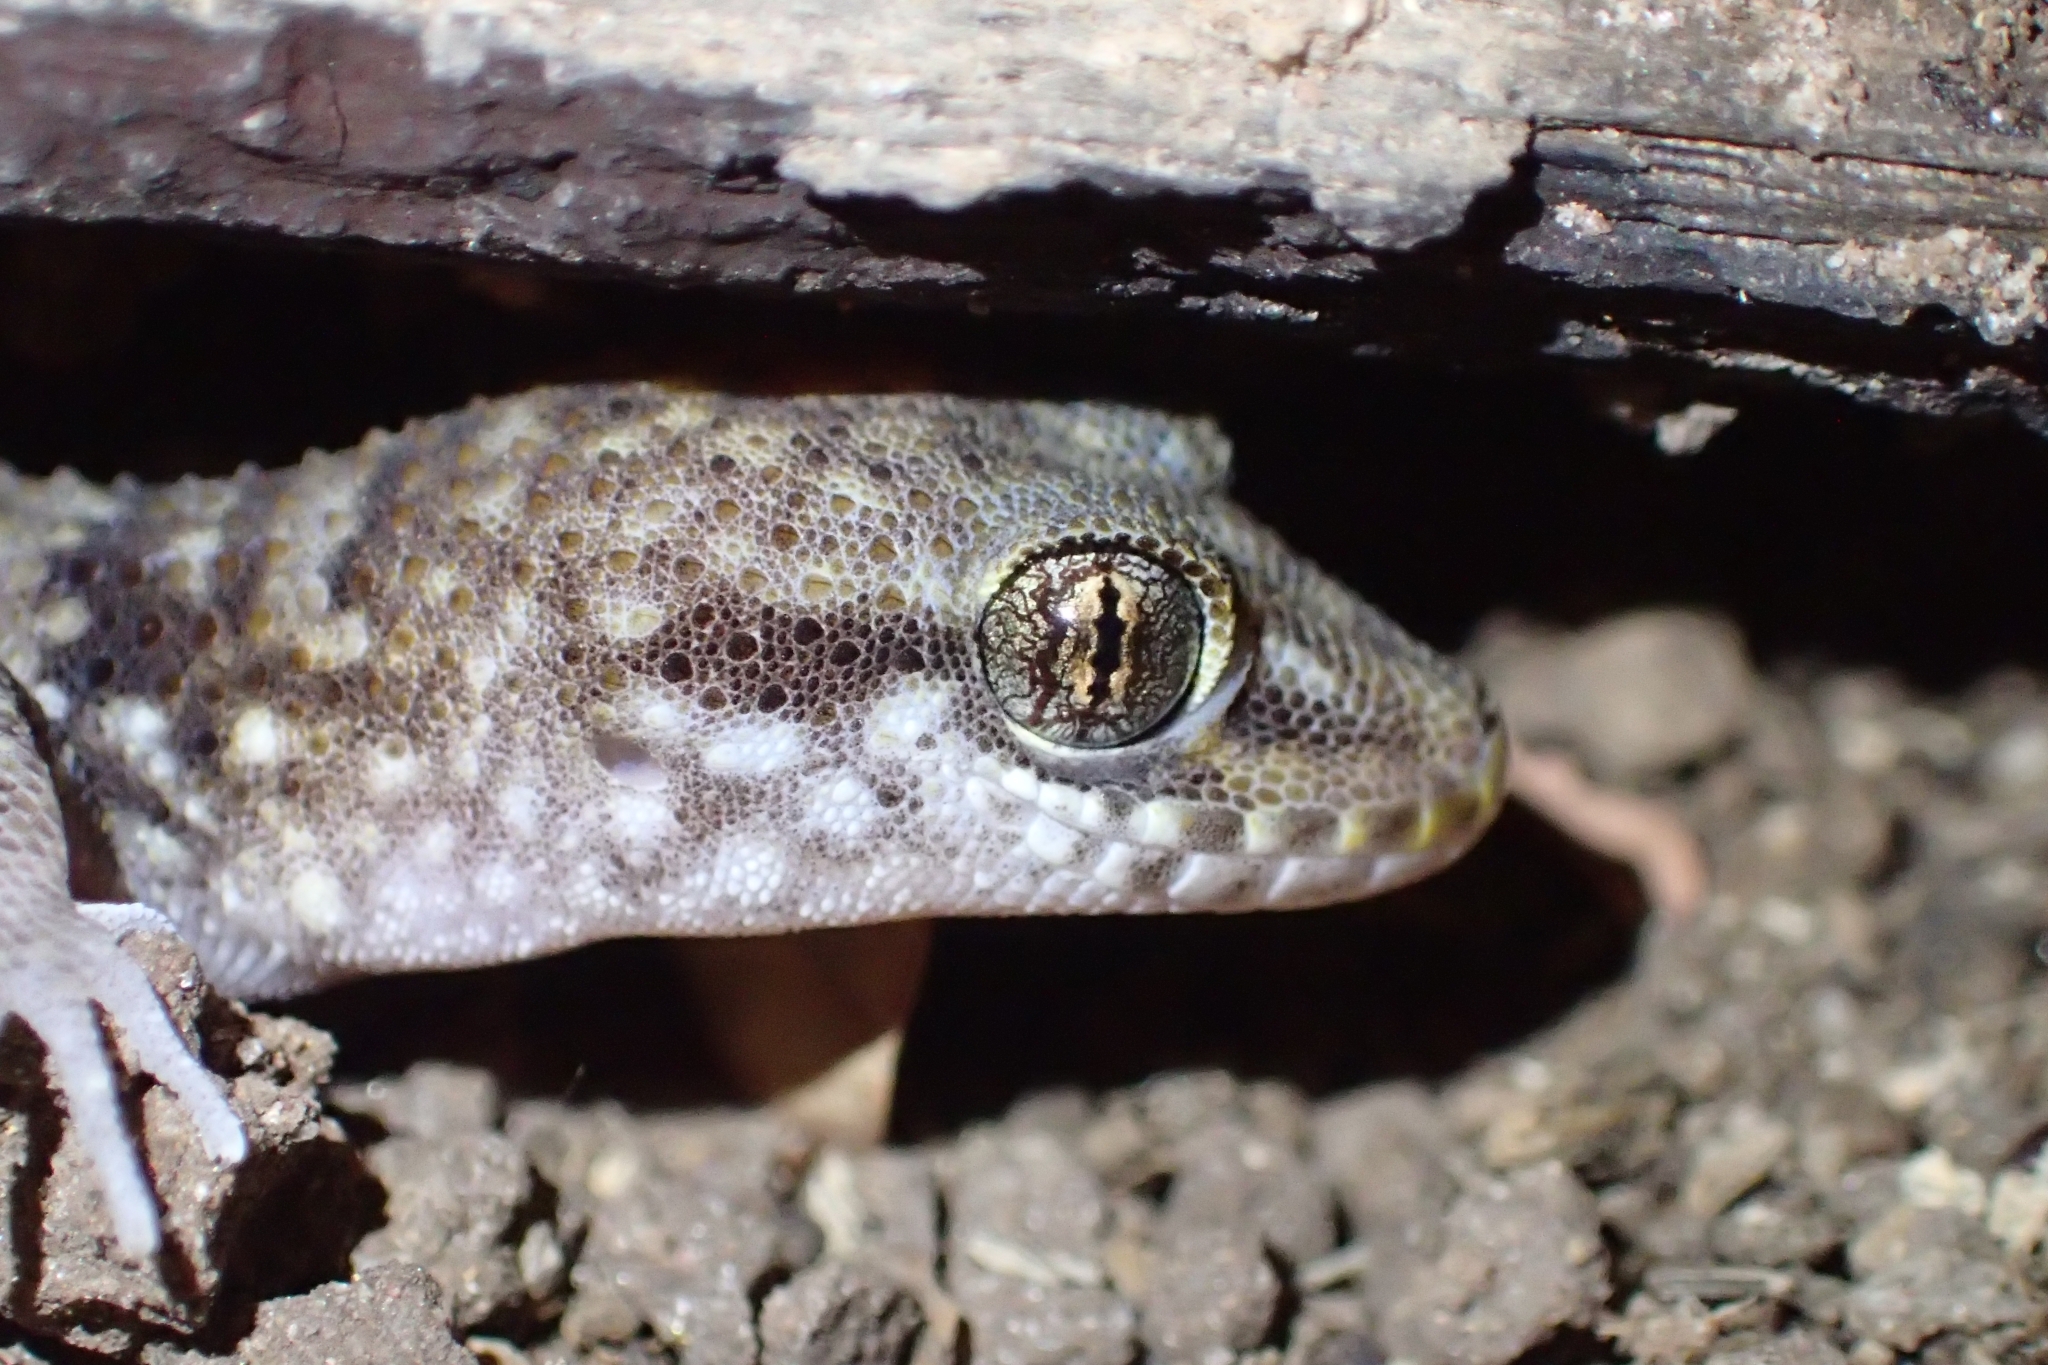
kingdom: Animalia
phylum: Chordata
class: Squamata
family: Gekkonidae
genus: Heteronotia
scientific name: Heteronotia binoei
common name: Bynoe's gecko
